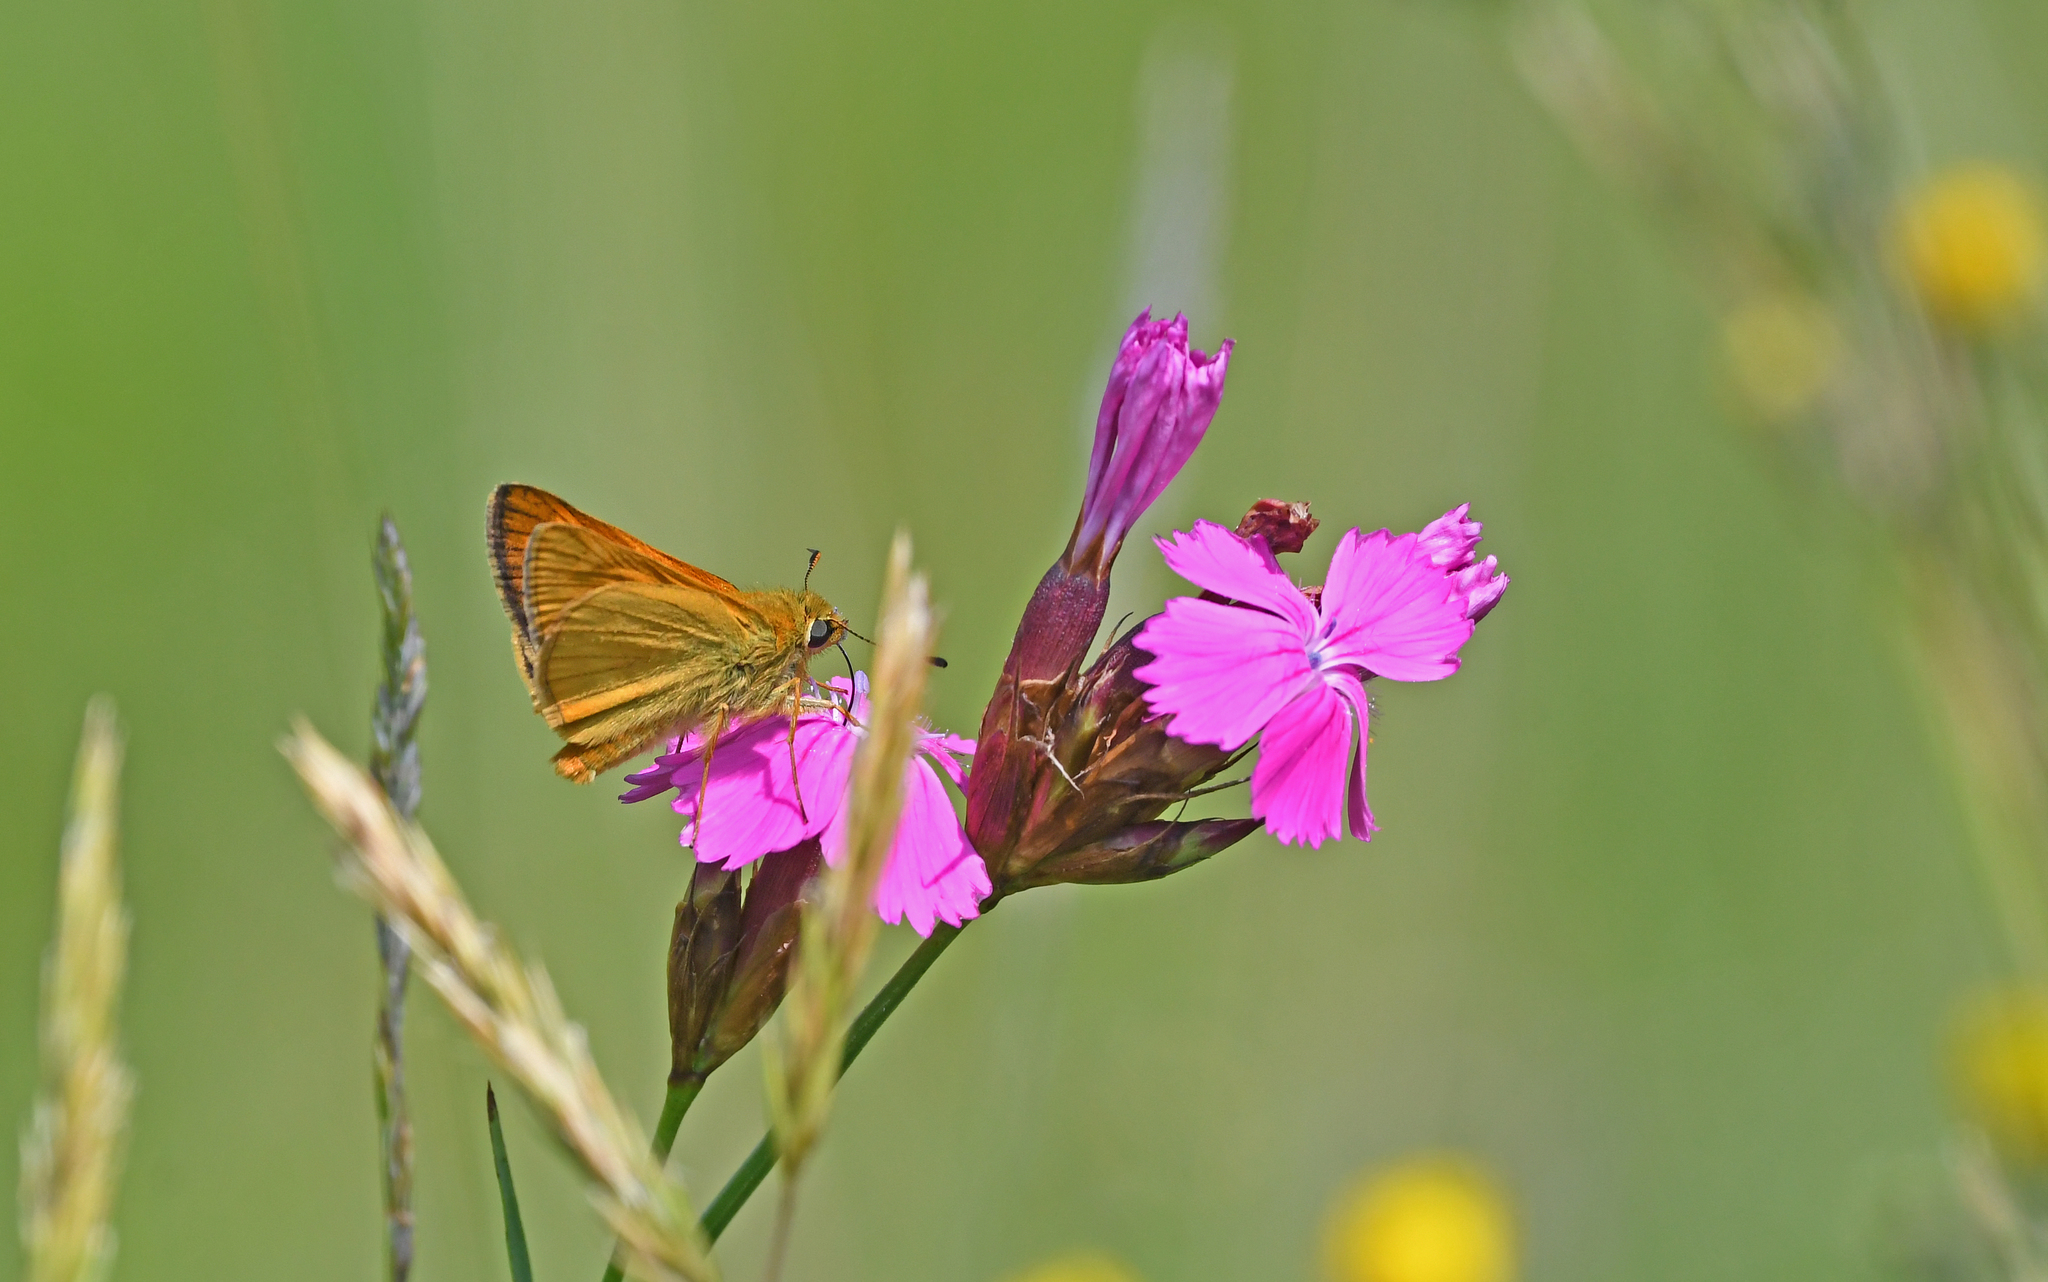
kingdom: Animalia
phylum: Arthropoda
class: Insecta
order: Lepidoptera
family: Hesperiidae
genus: Ochlodes
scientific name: Ochlodes venata
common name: Large skipper
